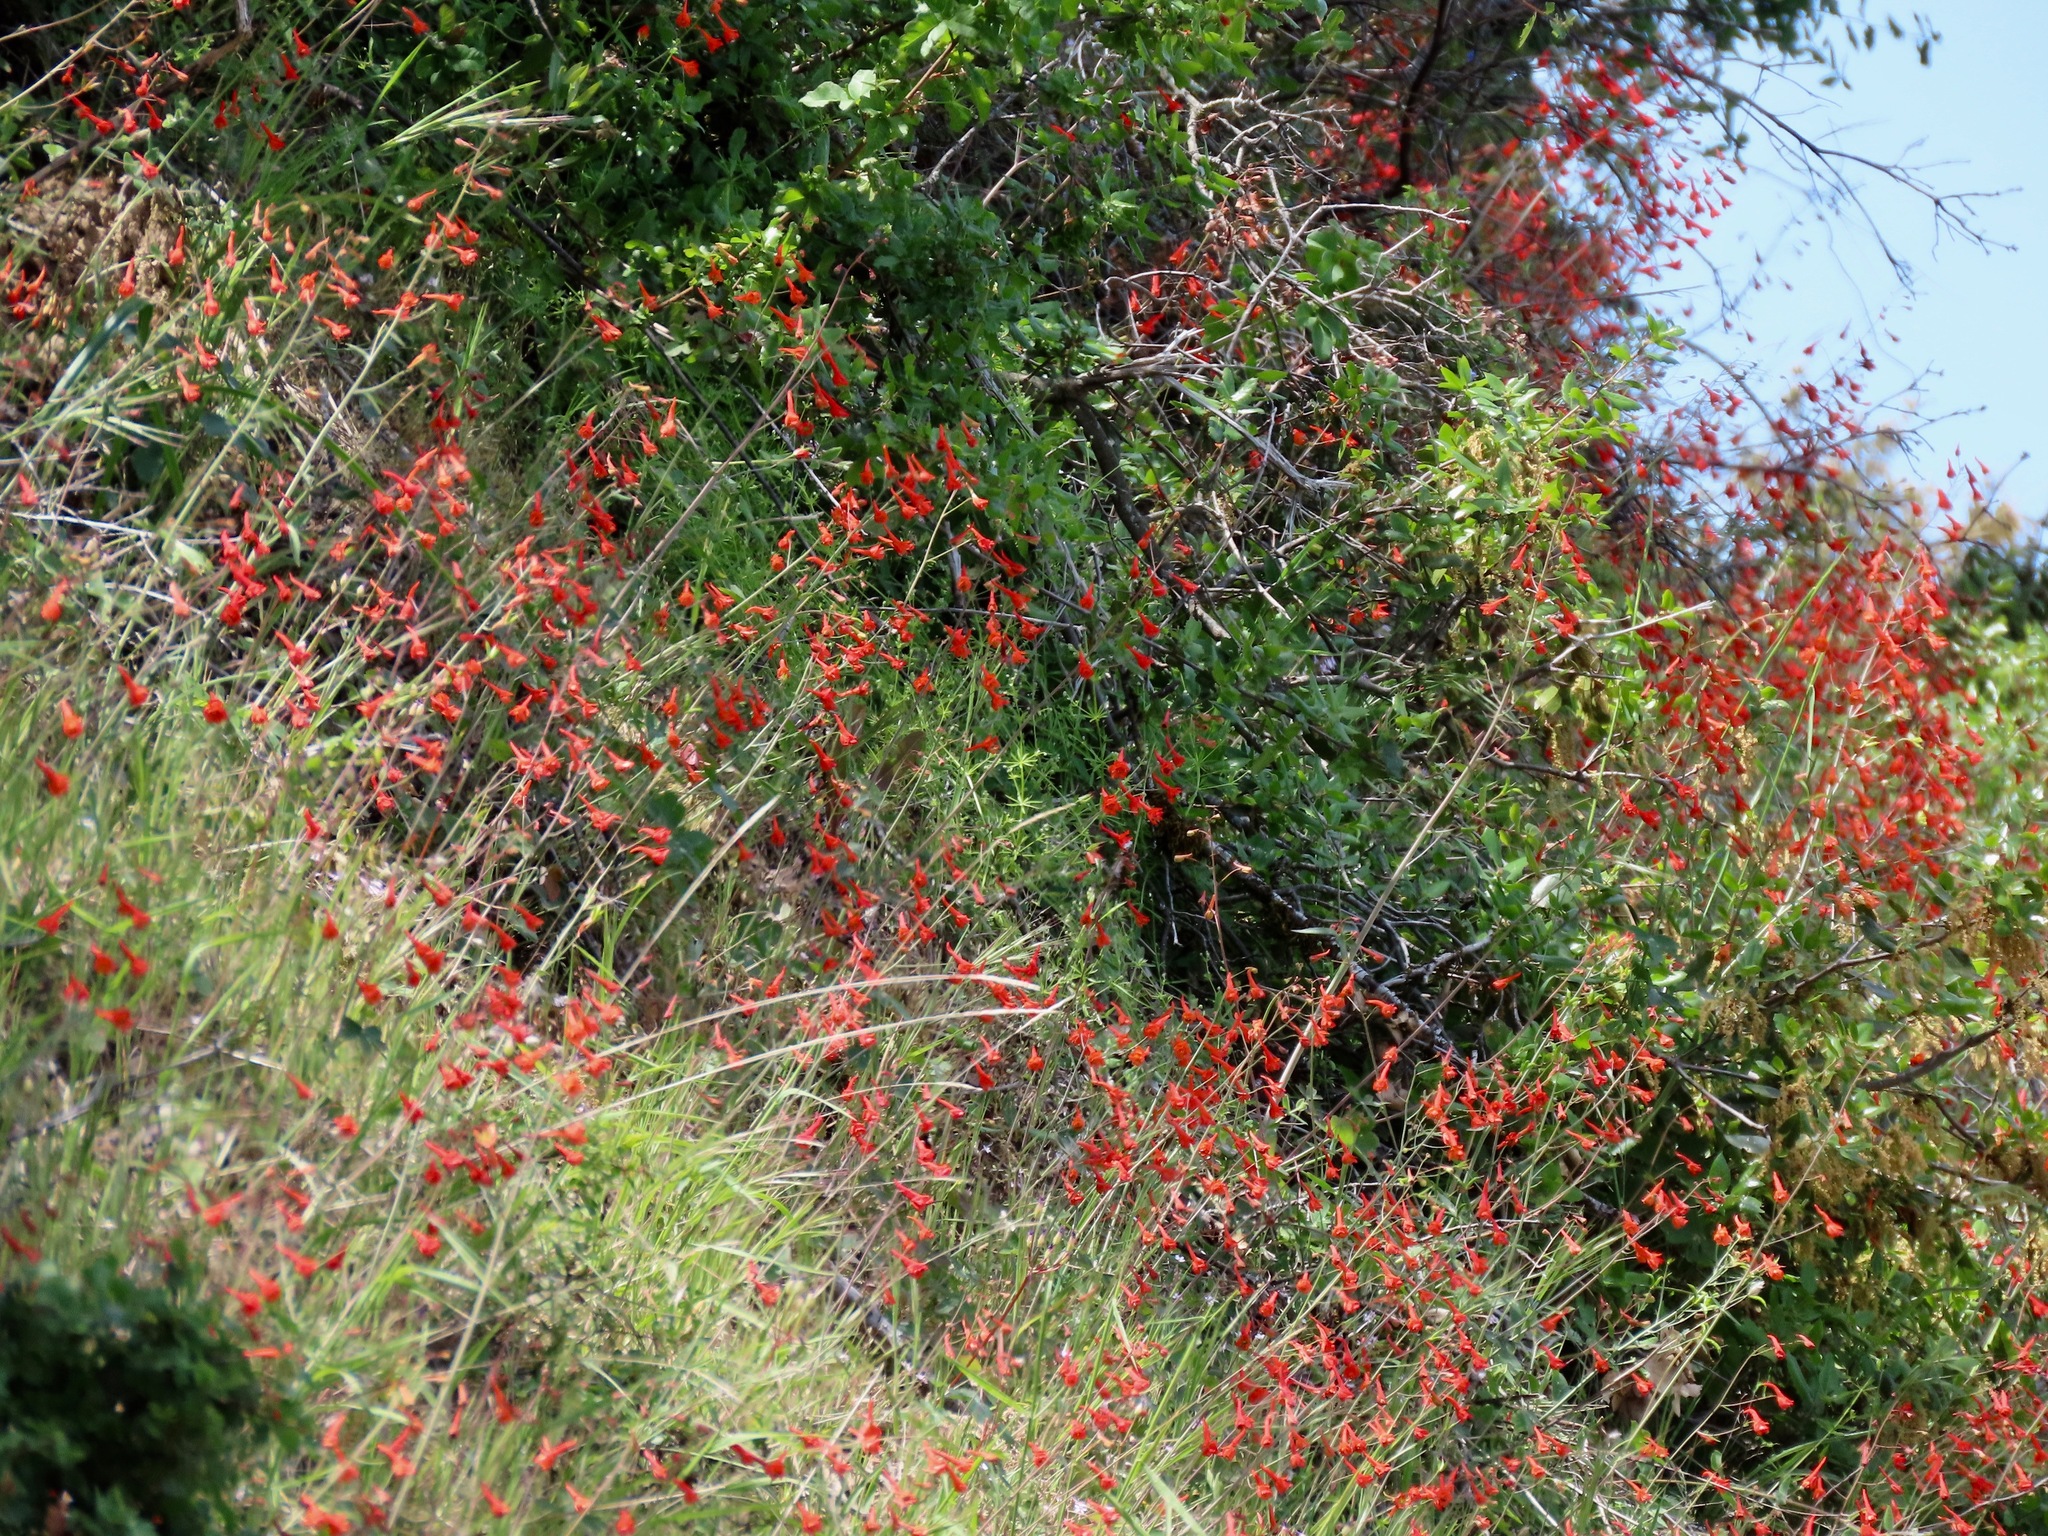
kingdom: Plantae
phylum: Tracheophyta
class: Magnoliopsida
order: Ranunculales
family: Ranunculaceae
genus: Delphinium
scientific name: Delphinium nudicaule
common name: Red larkspur
